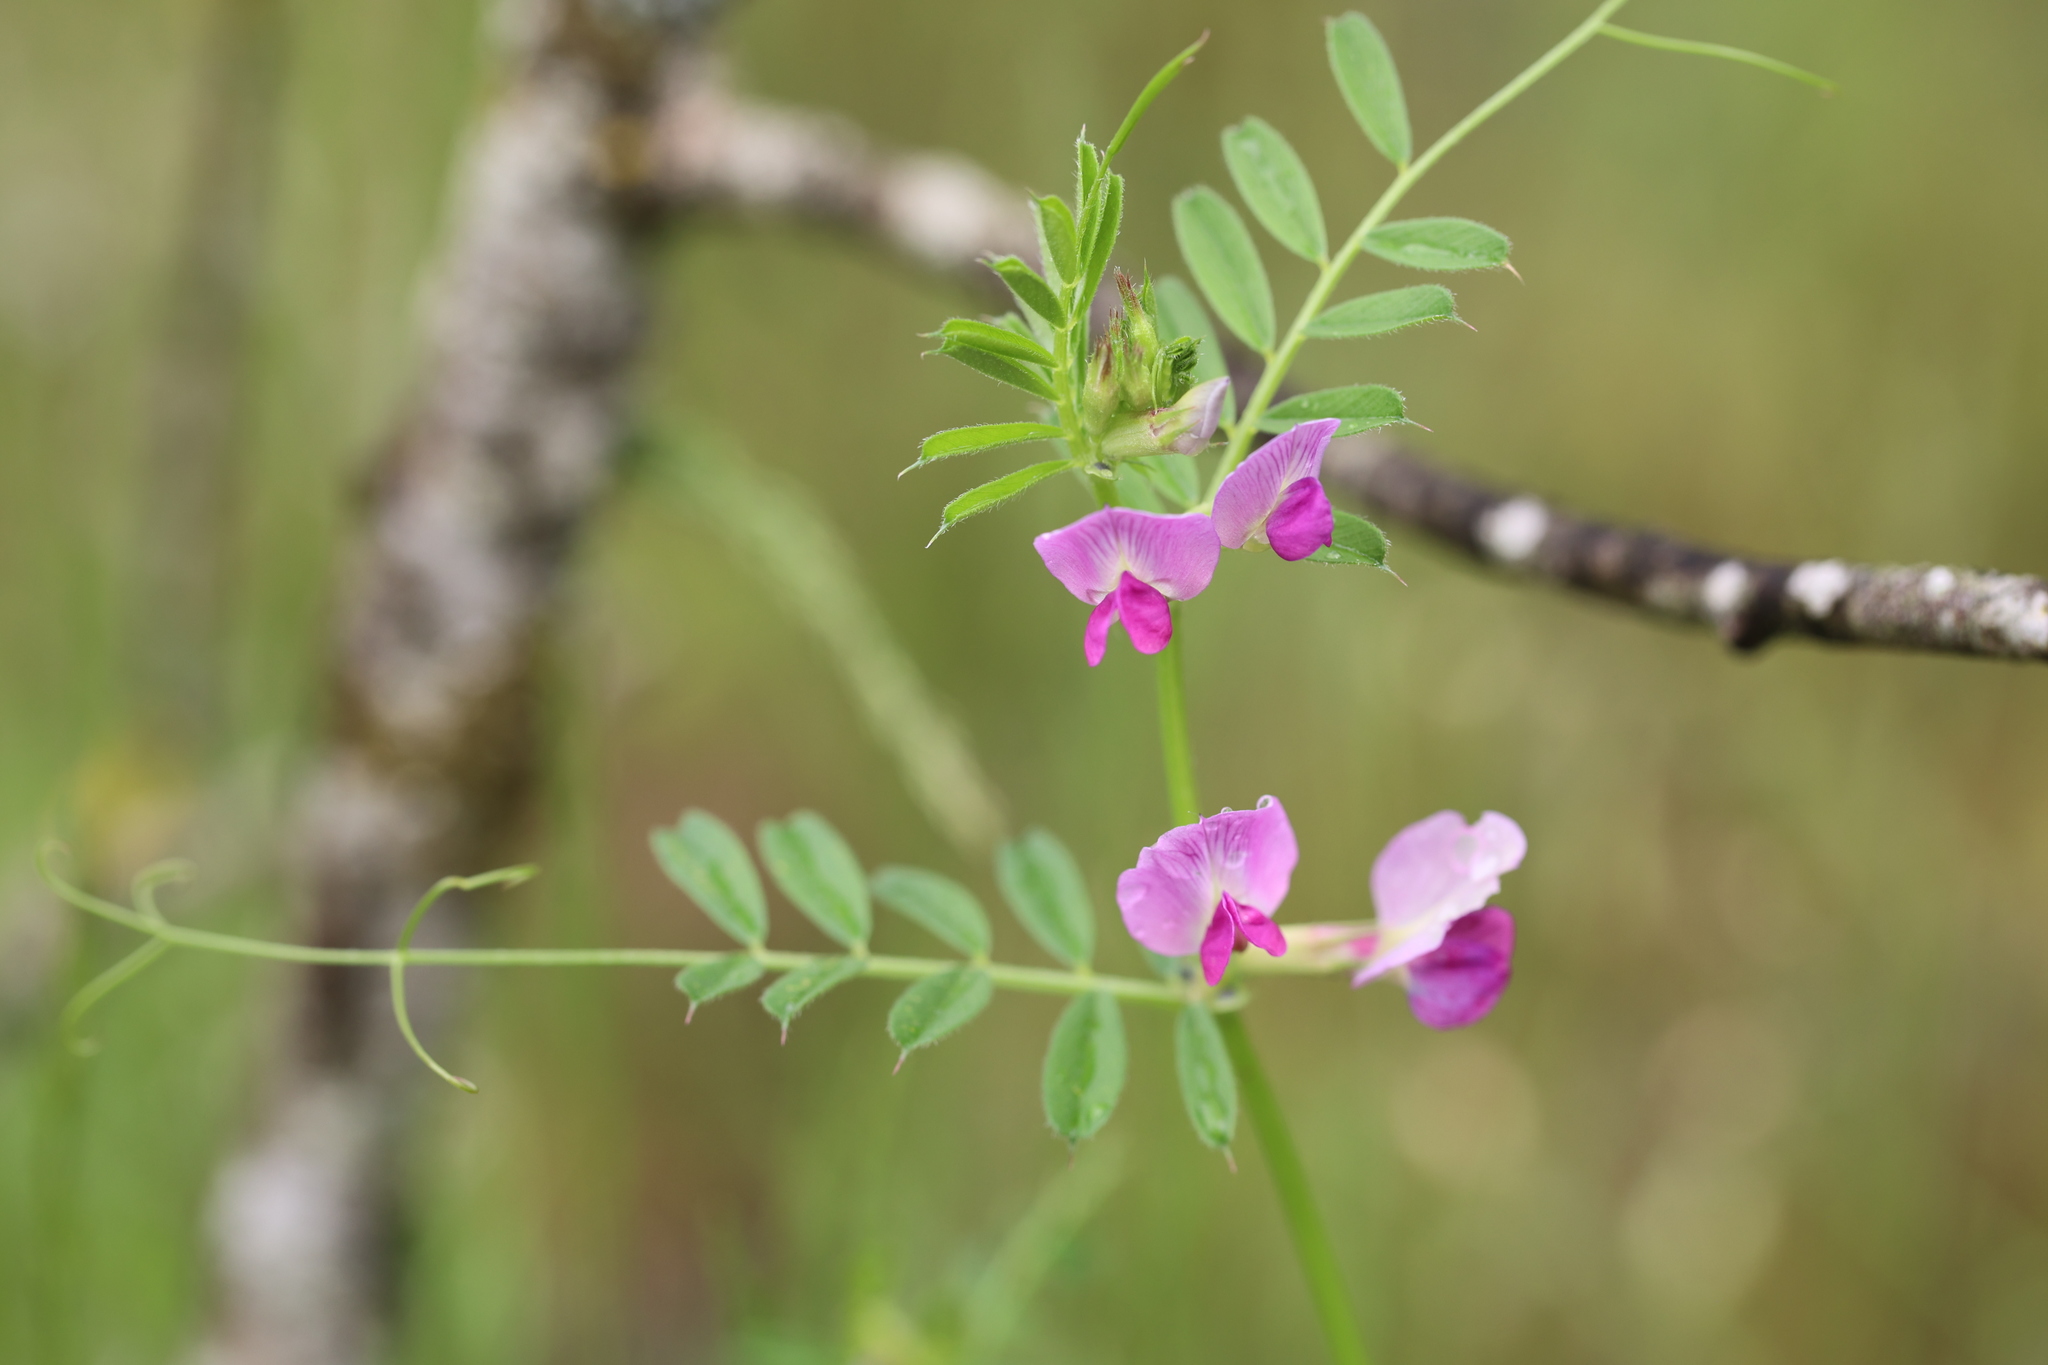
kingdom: Plantae
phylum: Tracheophyta
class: Magnoliopsida
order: Fabales
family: Fabaceae
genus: Vicia
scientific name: Vicia sativa
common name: Garden vetch
